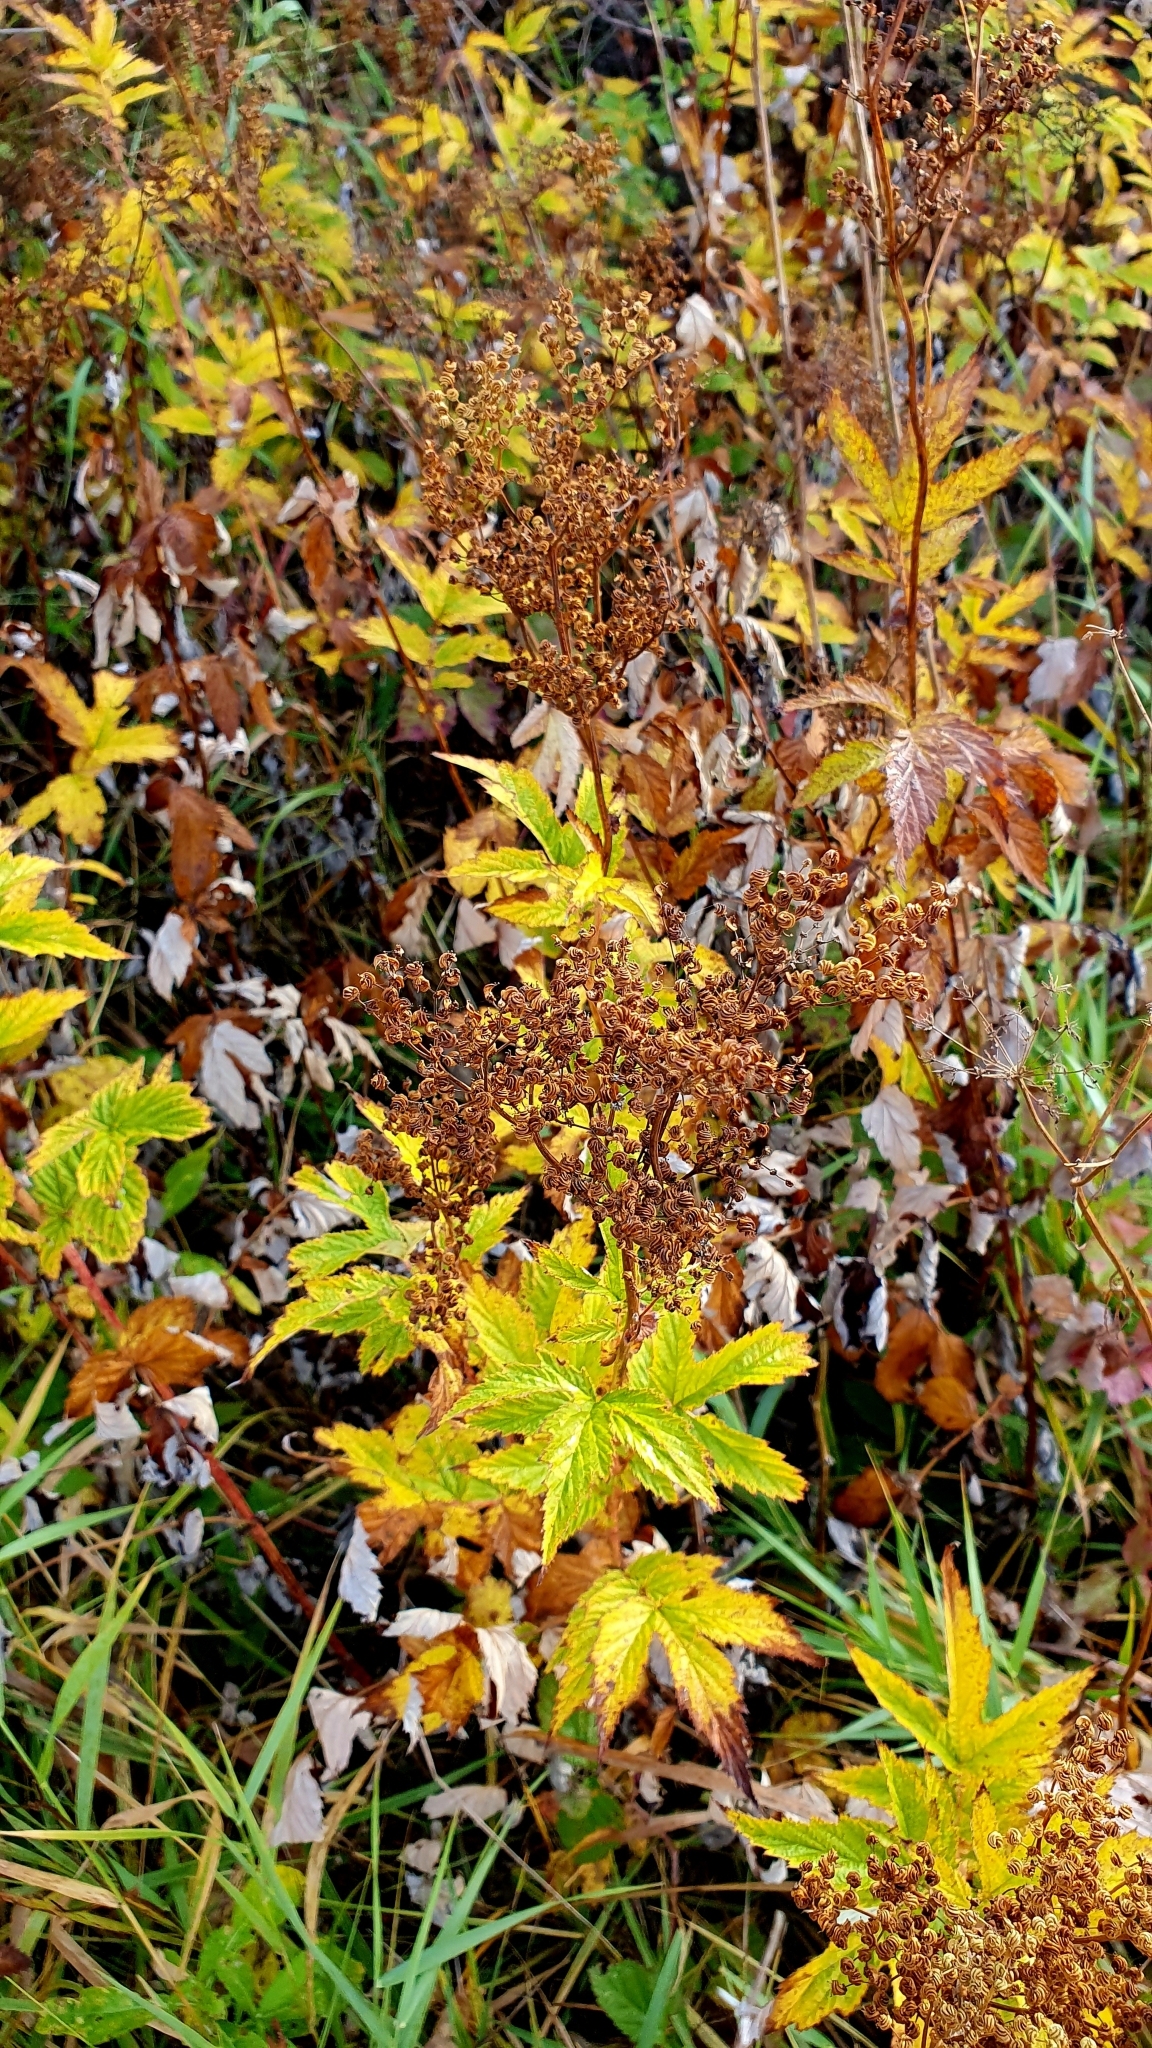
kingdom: Plantae
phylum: Tracheophyta
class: Magnoliopsida
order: Rosales
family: Rosaceae
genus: Filipendula
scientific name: Filipendula ulmaria
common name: Meadowsweet
